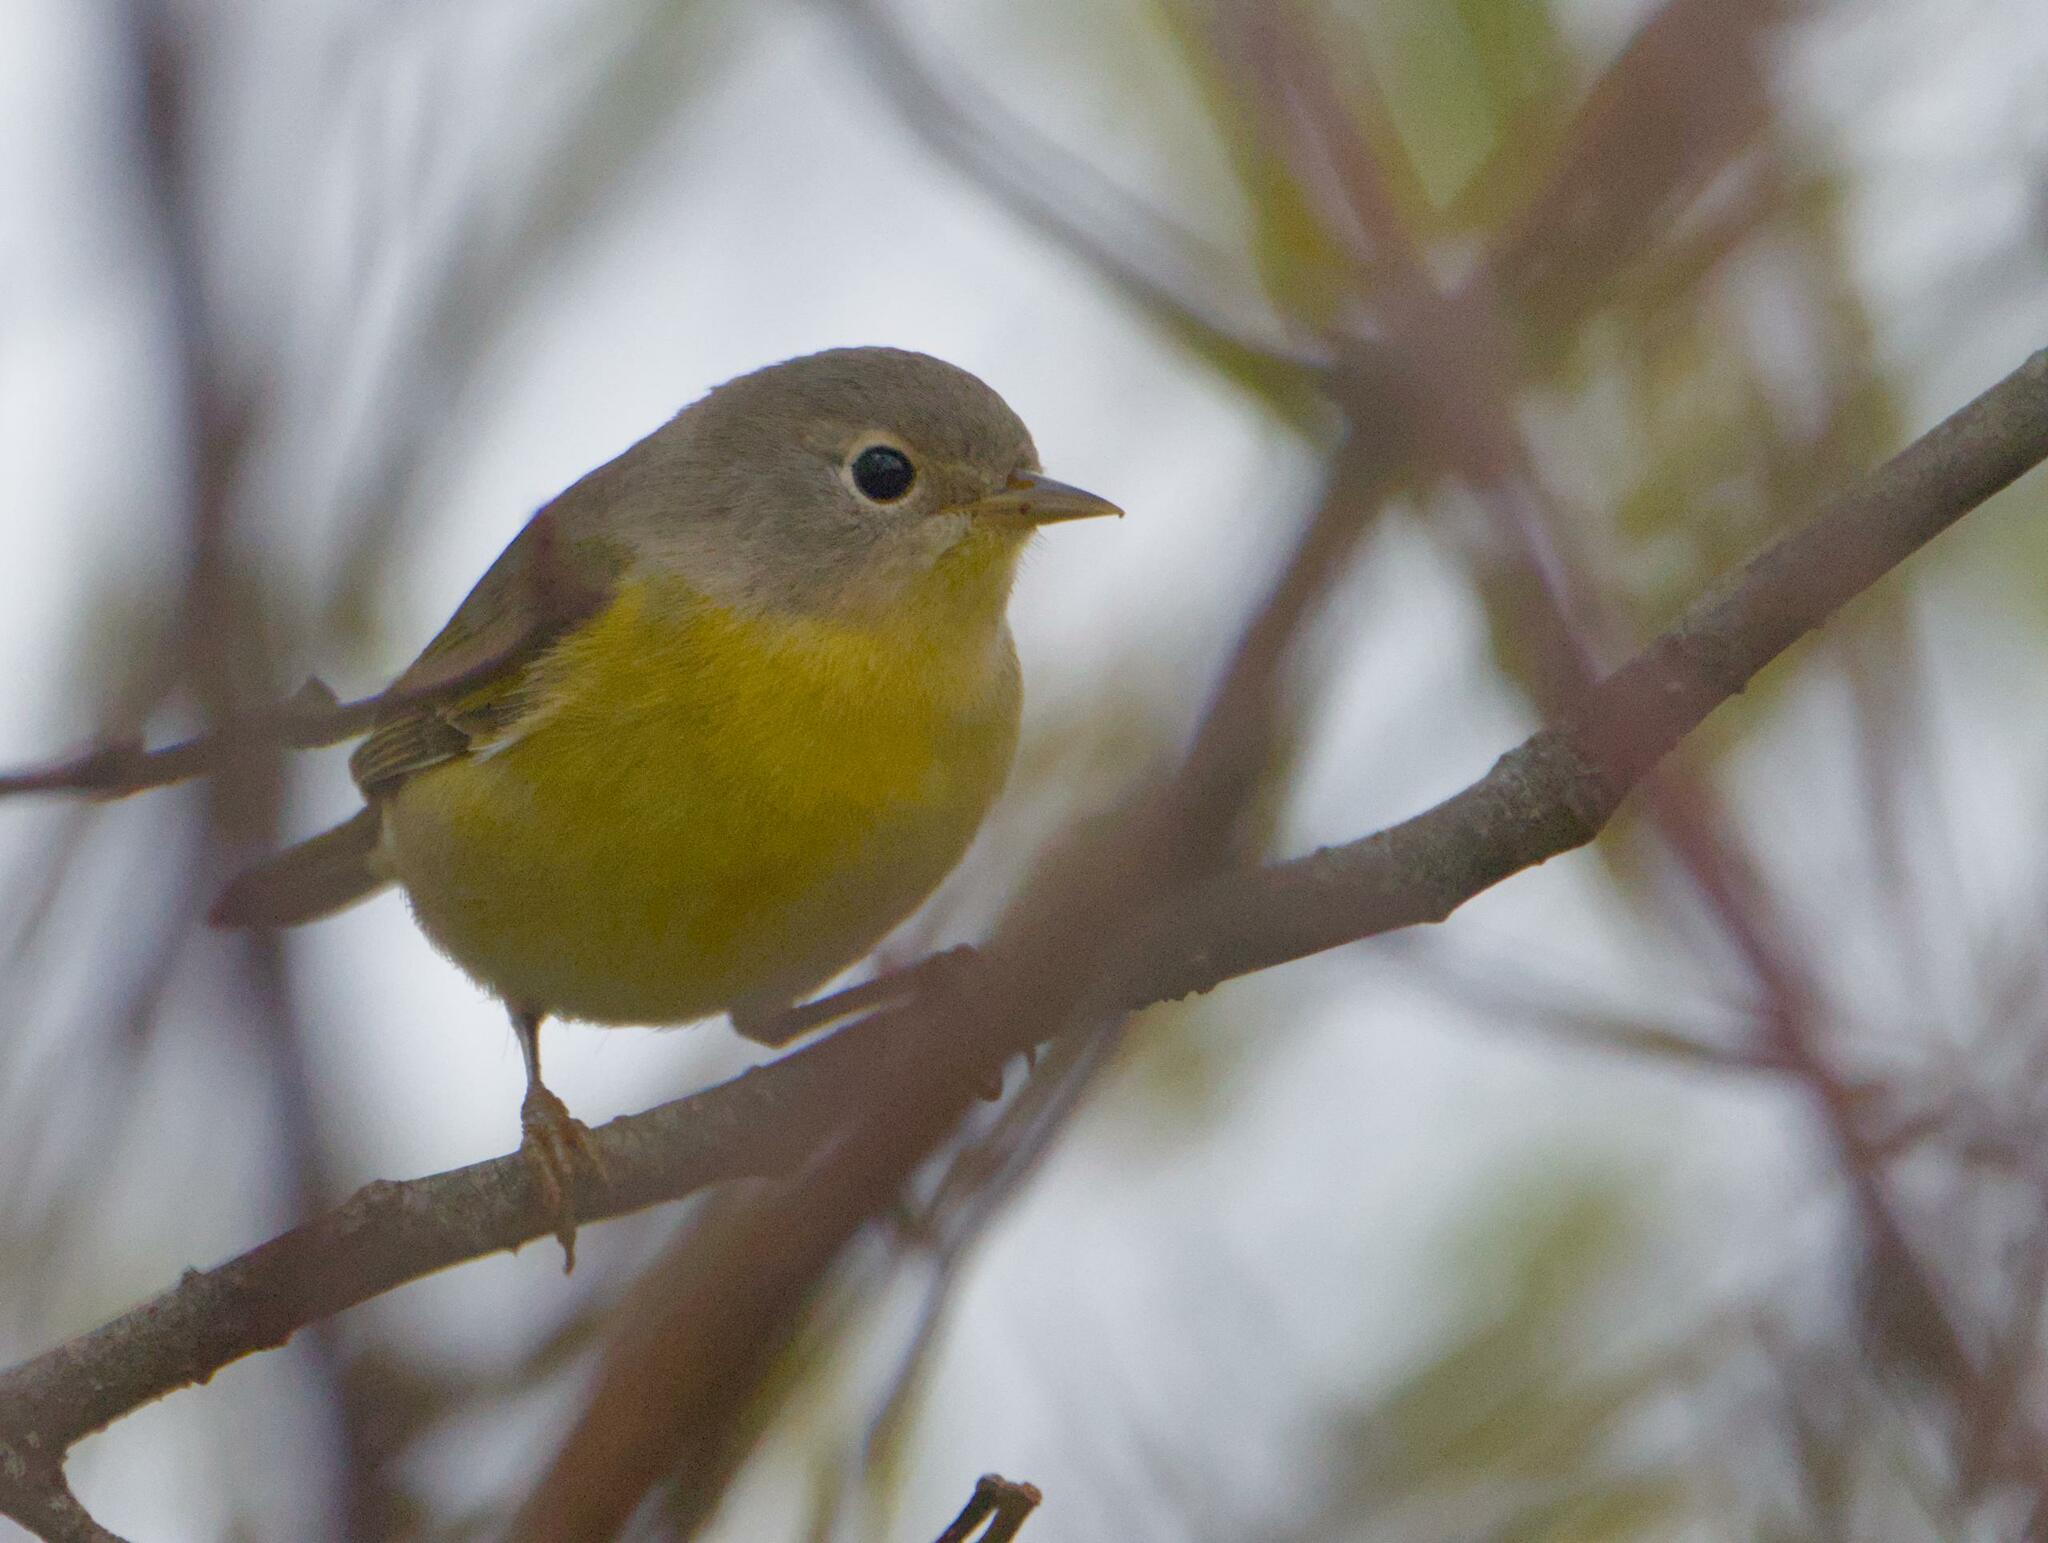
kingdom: Animalia
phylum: Chordata
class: Aves
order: Passeriformes
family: Parulidae
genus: Leiothlypis
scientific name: Leiothlypis ruficapilla
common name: Nashville warbler
